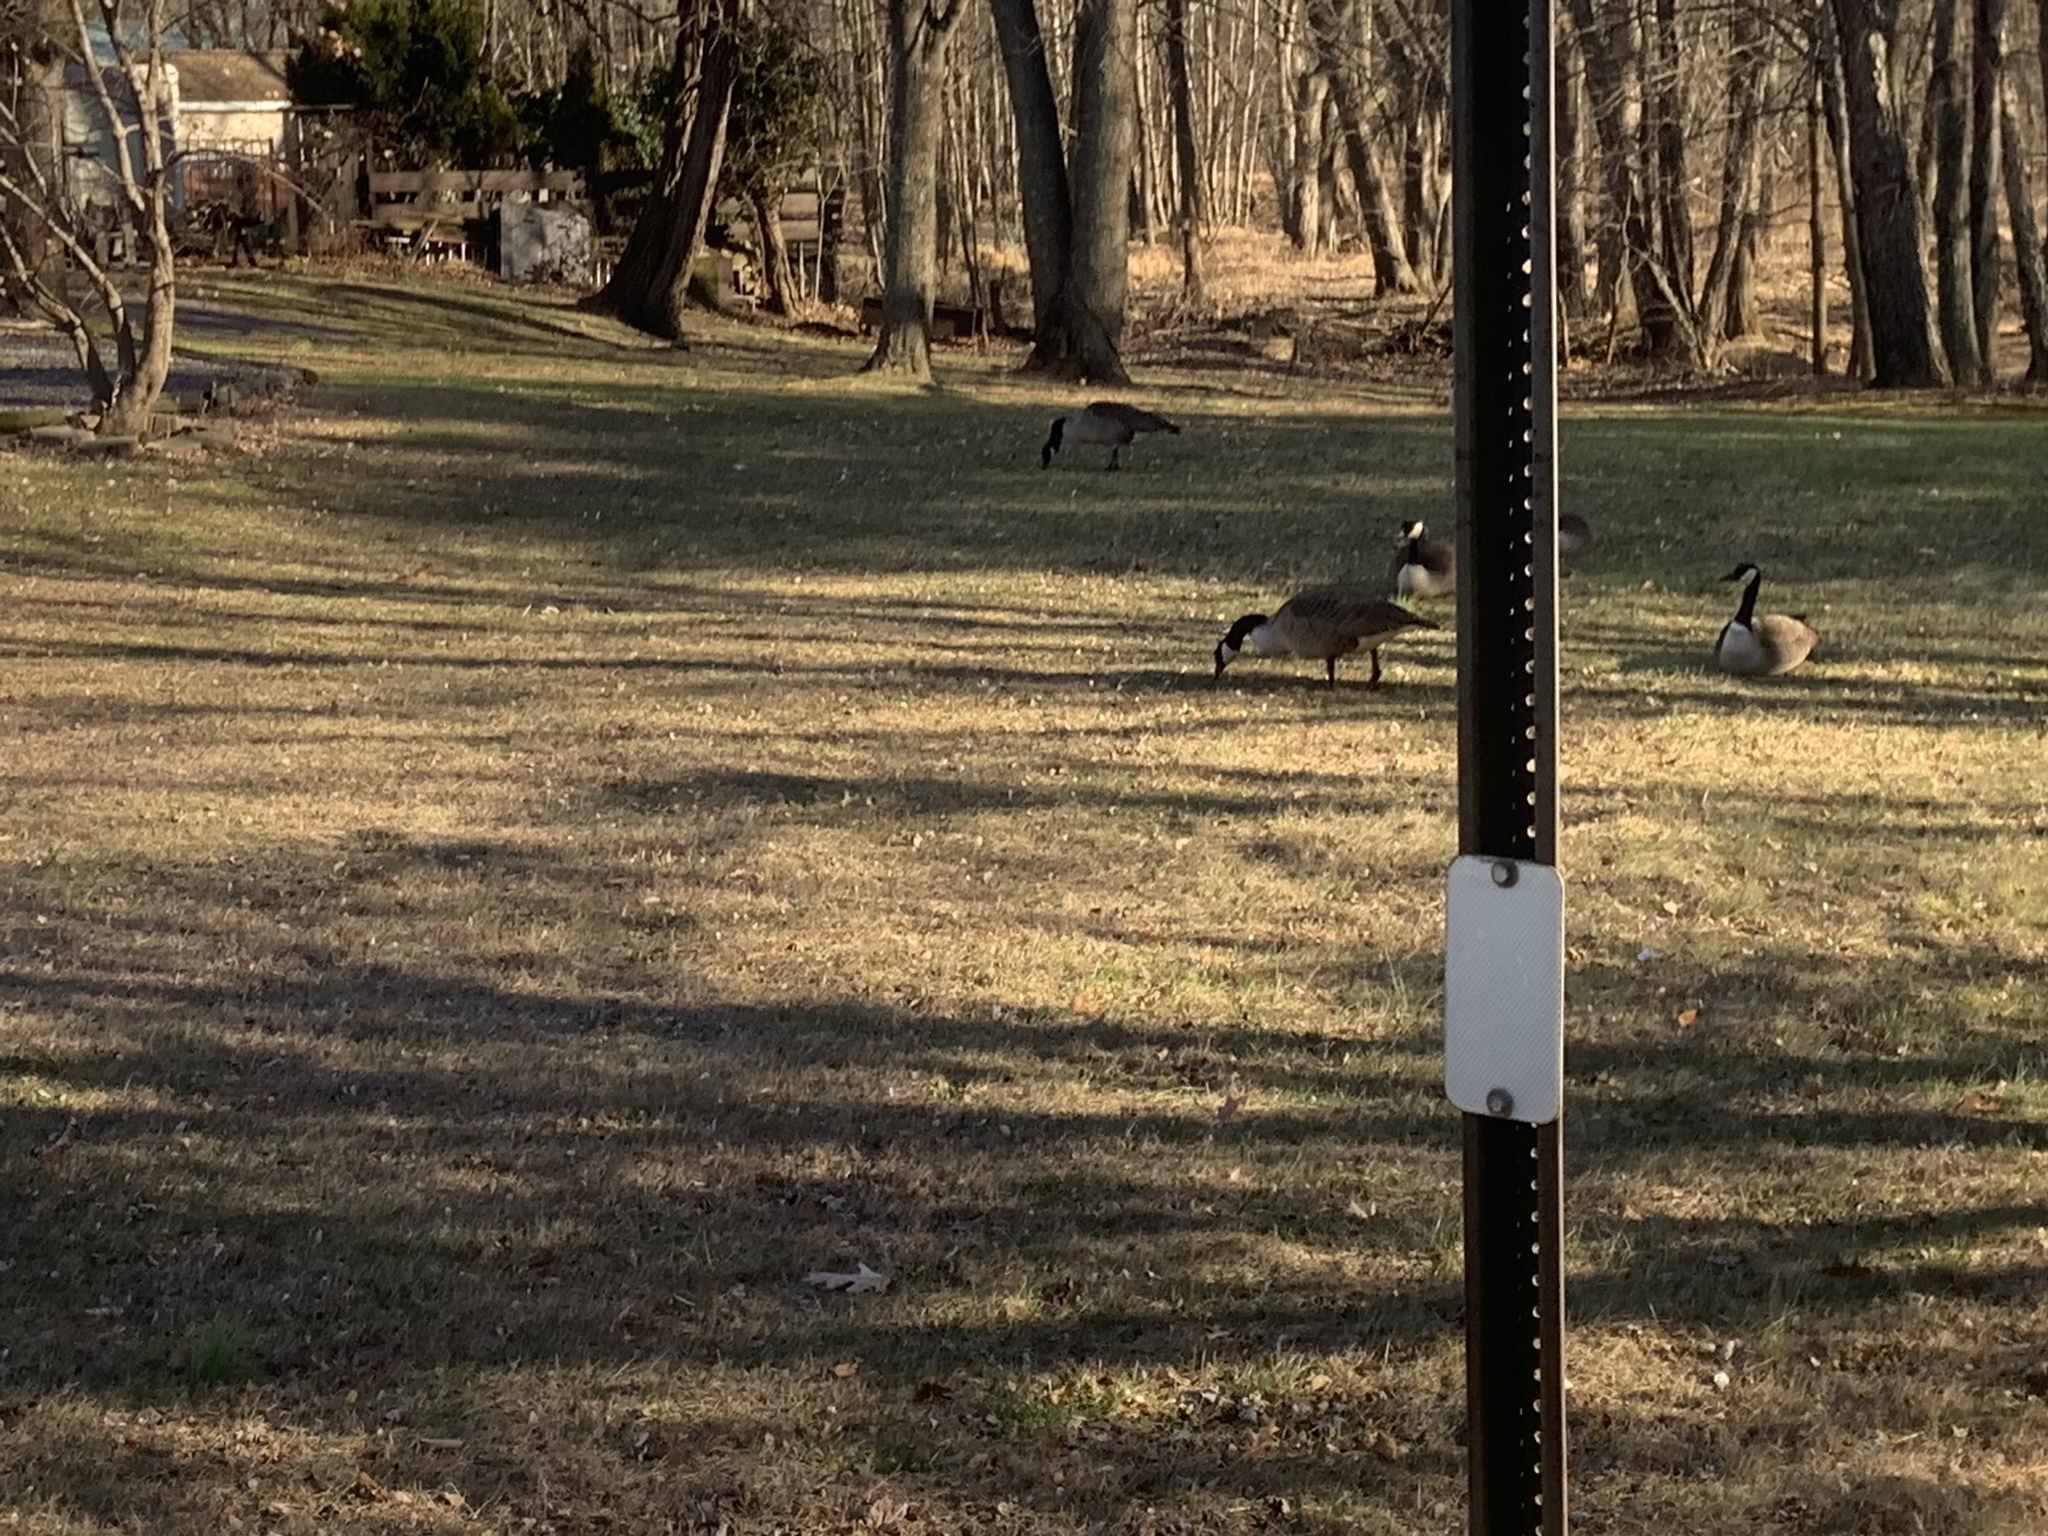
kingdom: Animalia
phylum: Chordata
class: Aves
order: Anseriformes
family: Anatidae
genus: Branta
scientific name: Branta canadensis
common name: Canada goose
